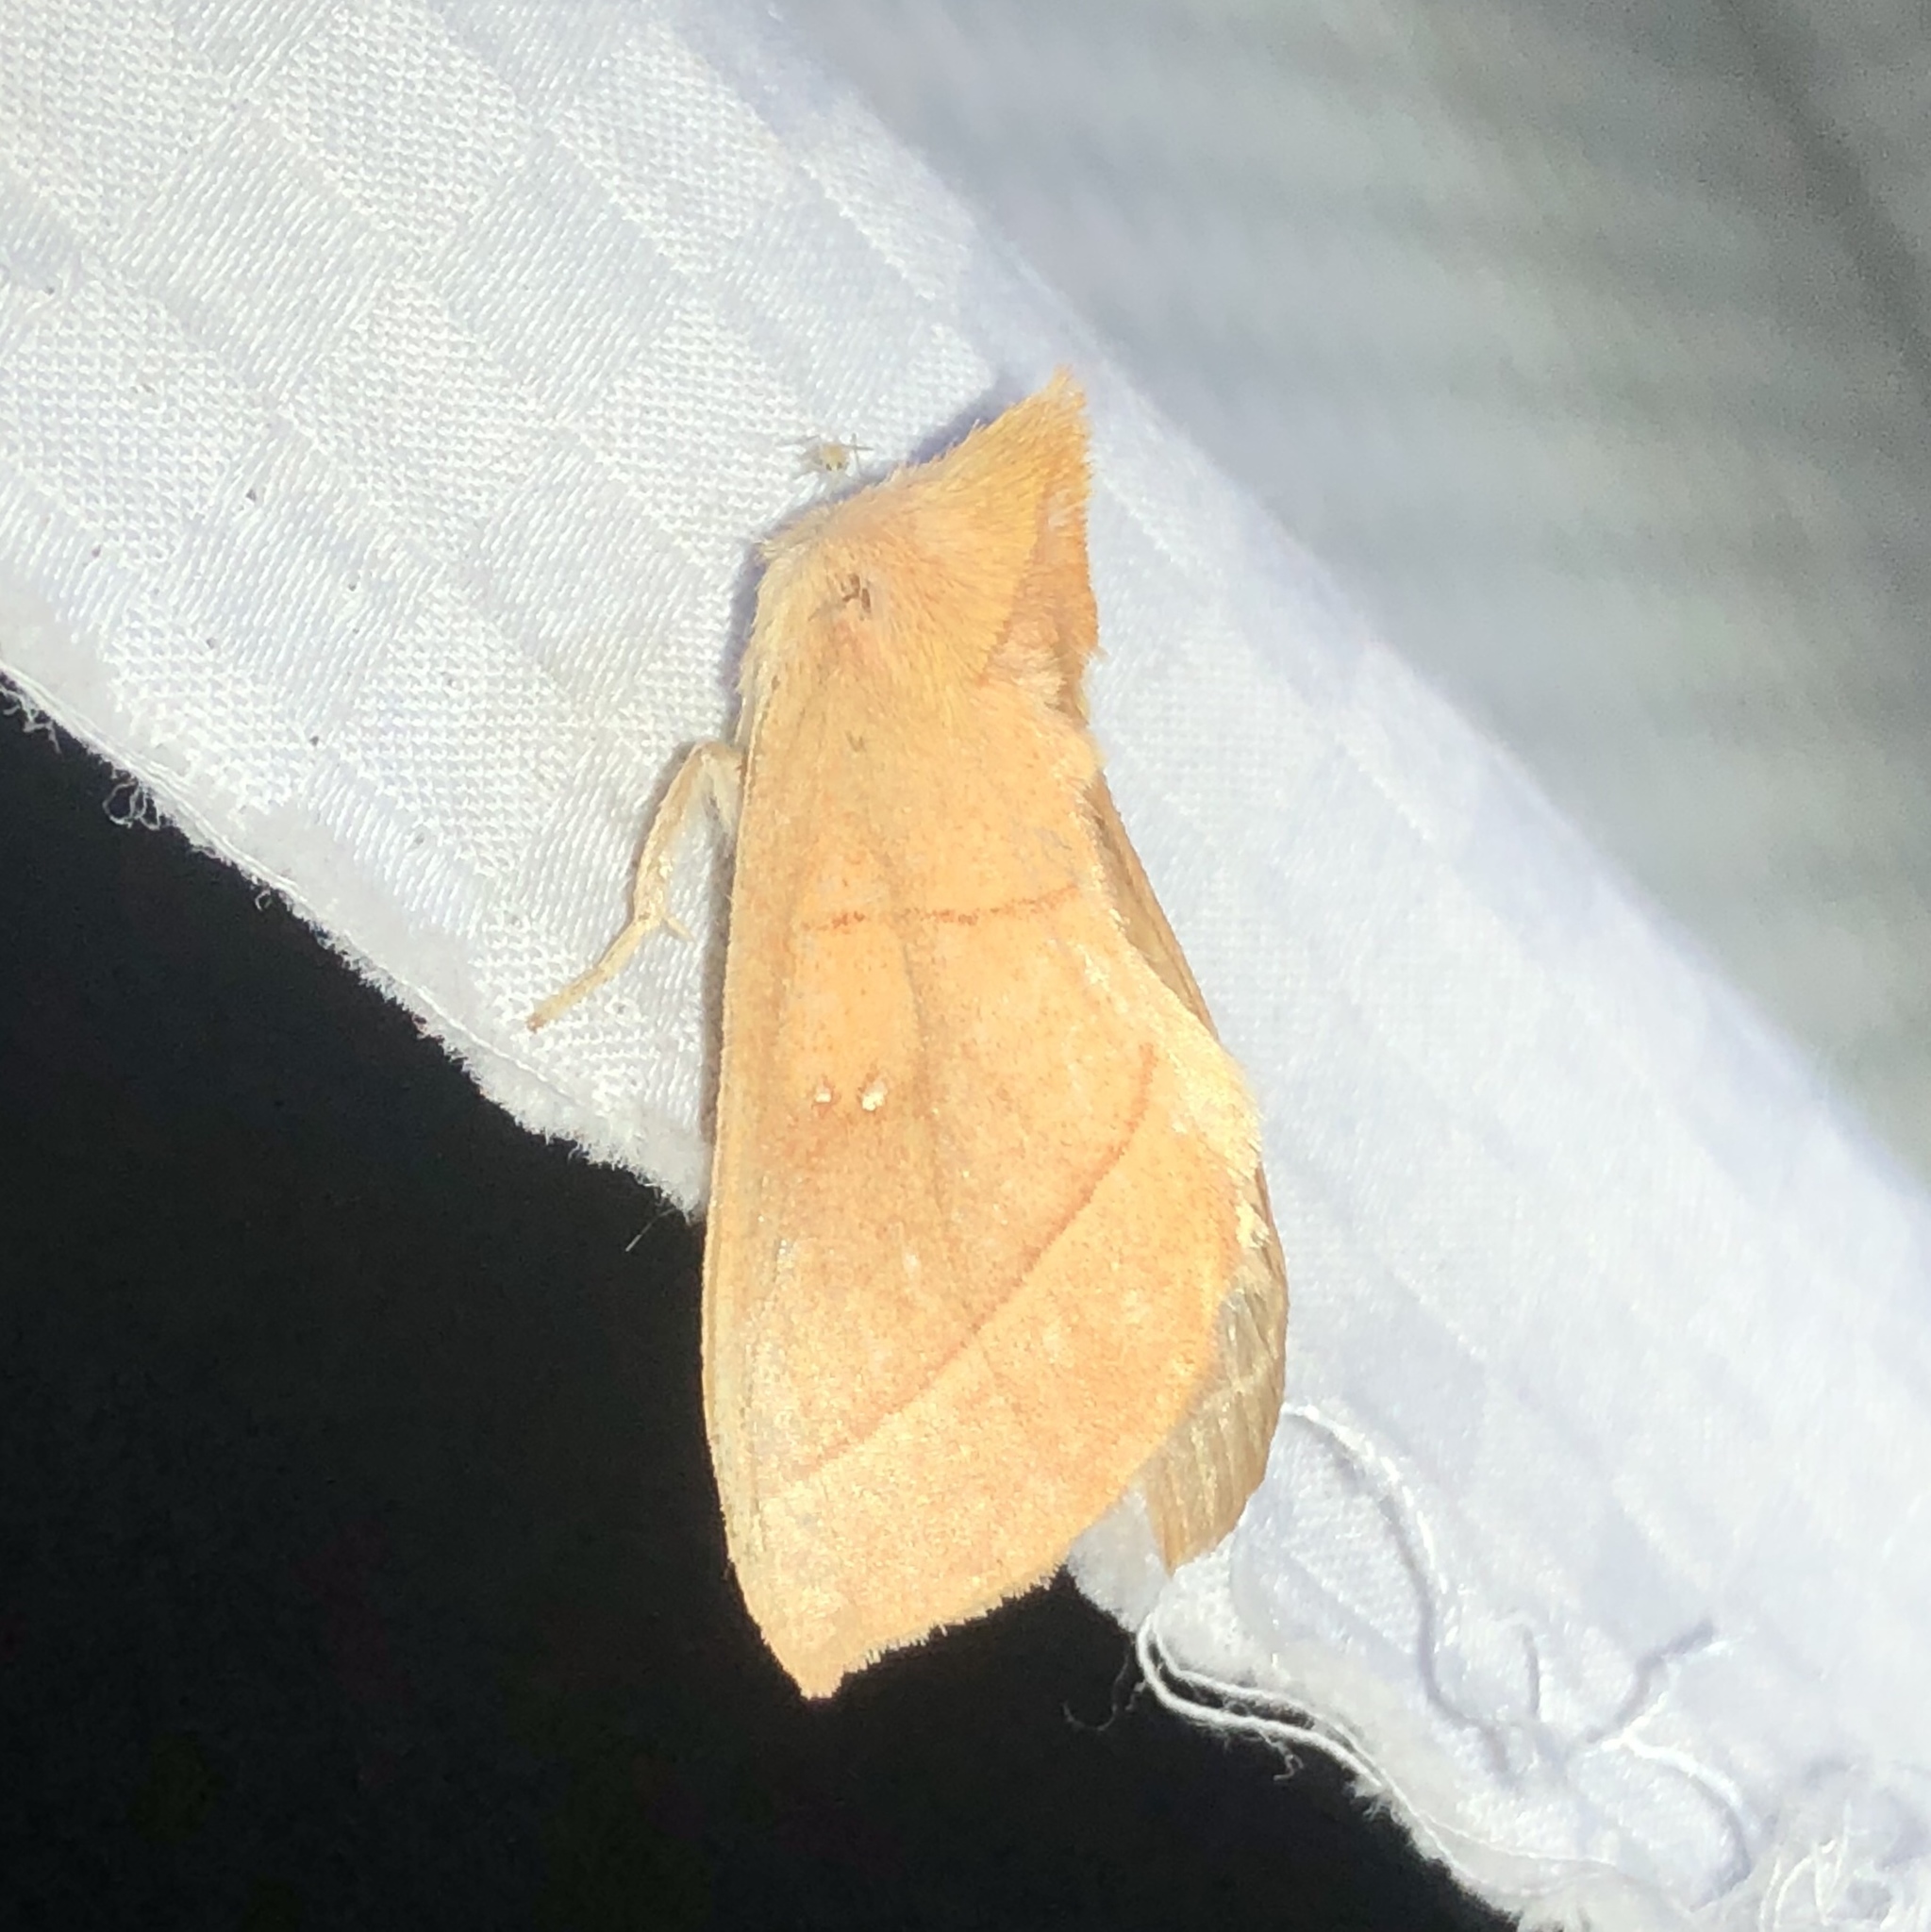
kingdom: Animalia
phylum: Arthropoda
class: Insecta
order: Lepidoptera
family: Notodontidae
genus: Nadata
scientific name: Nadata gibbosa
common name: White-dotted prominent
